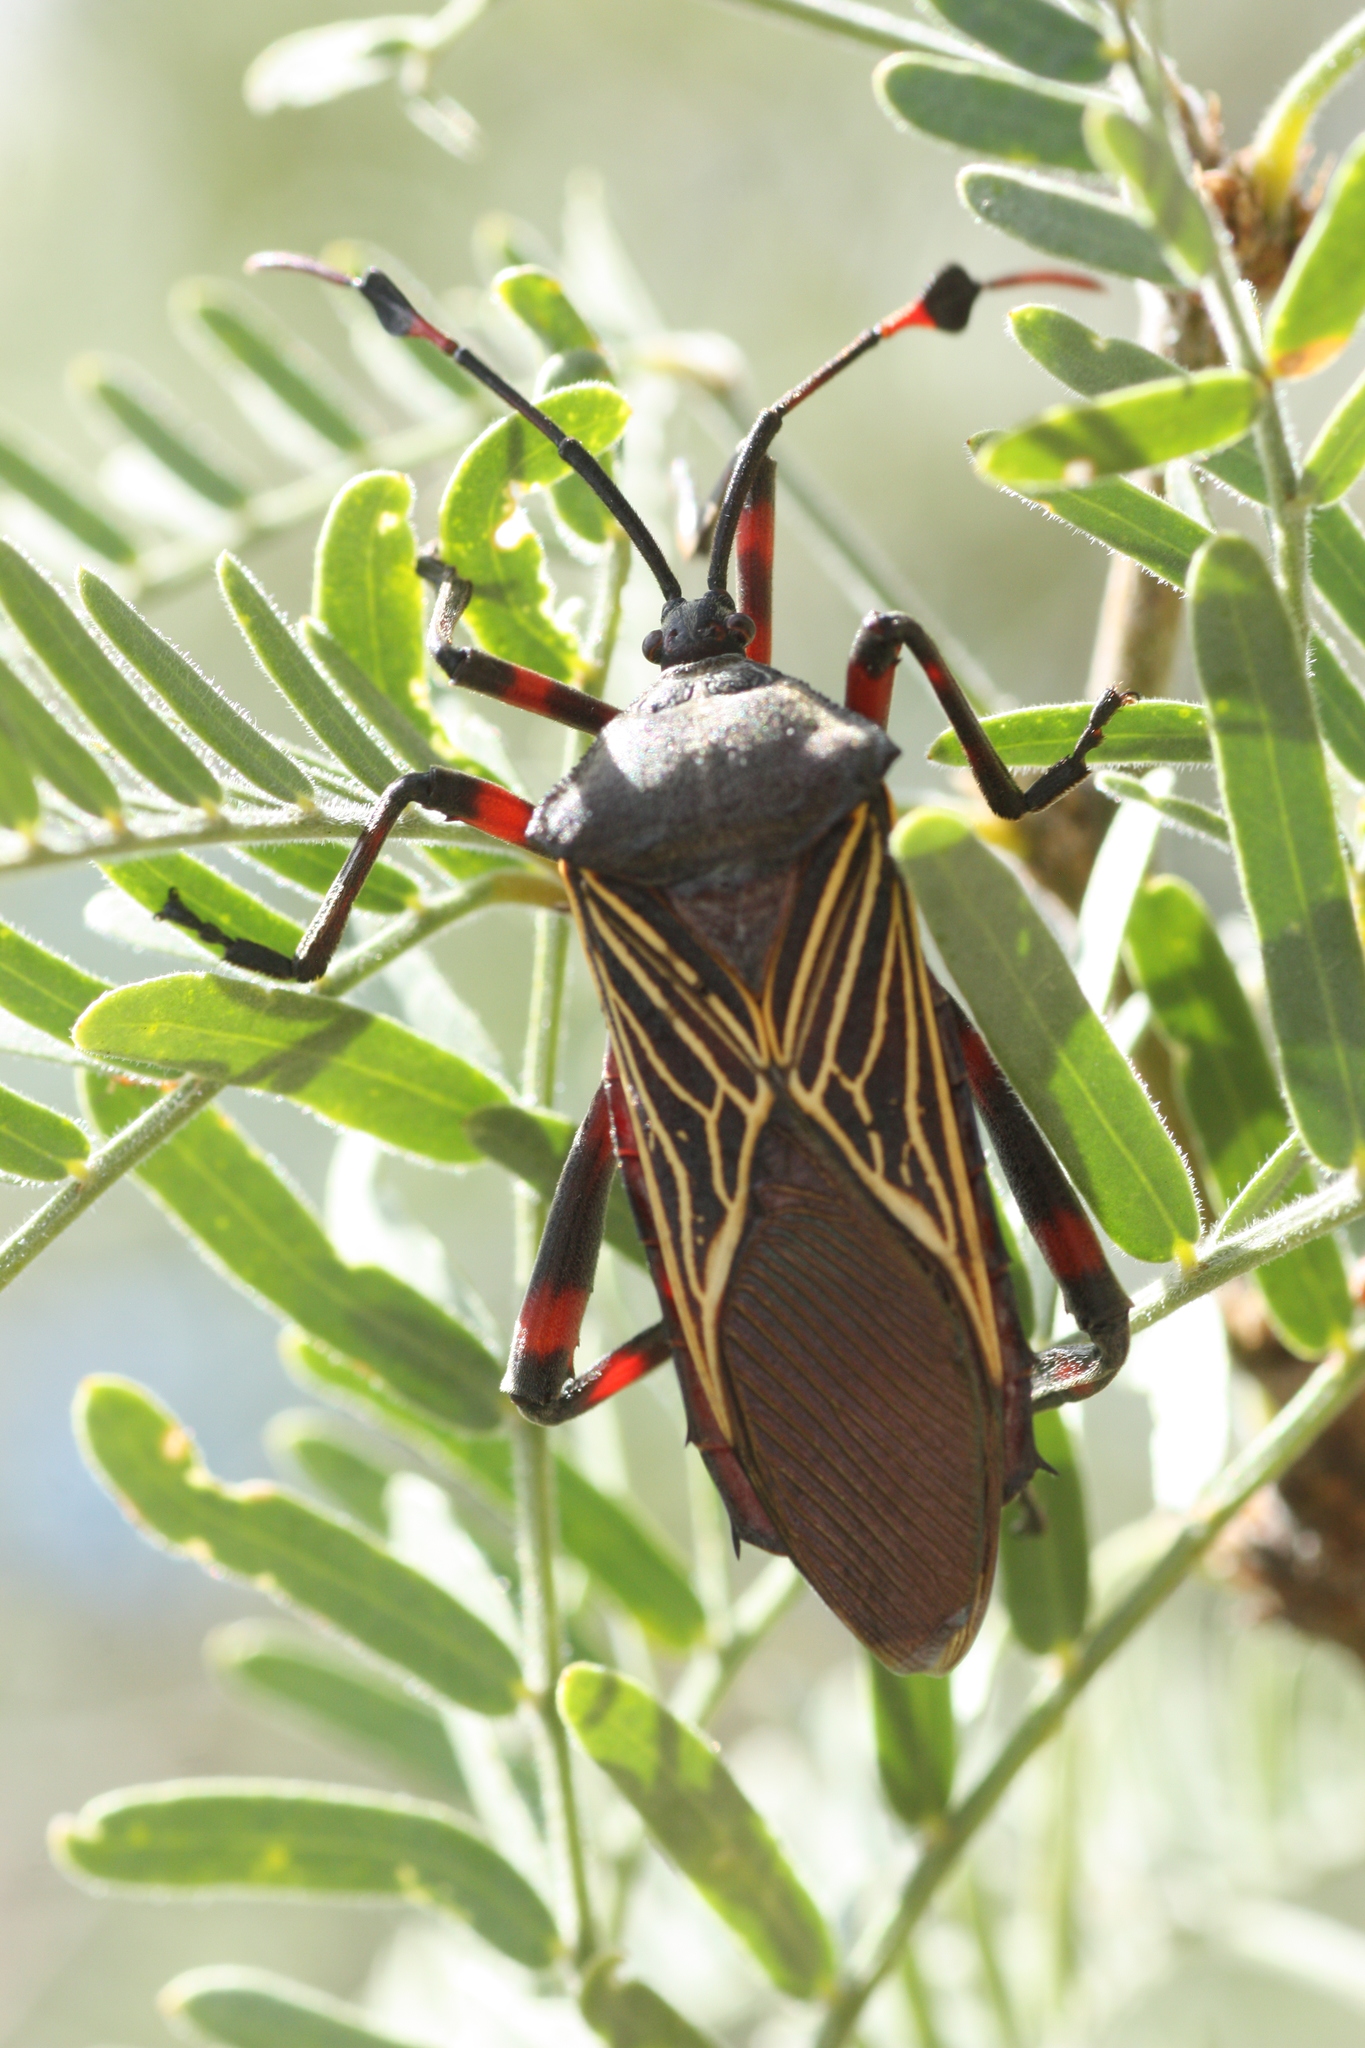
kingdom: Animalia
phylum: Arthropoda
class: Insecta
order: Hemiptera
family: Coreidae
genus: Thasus
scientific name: Thasus neocalifornicus
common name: Giant mesquite bug
